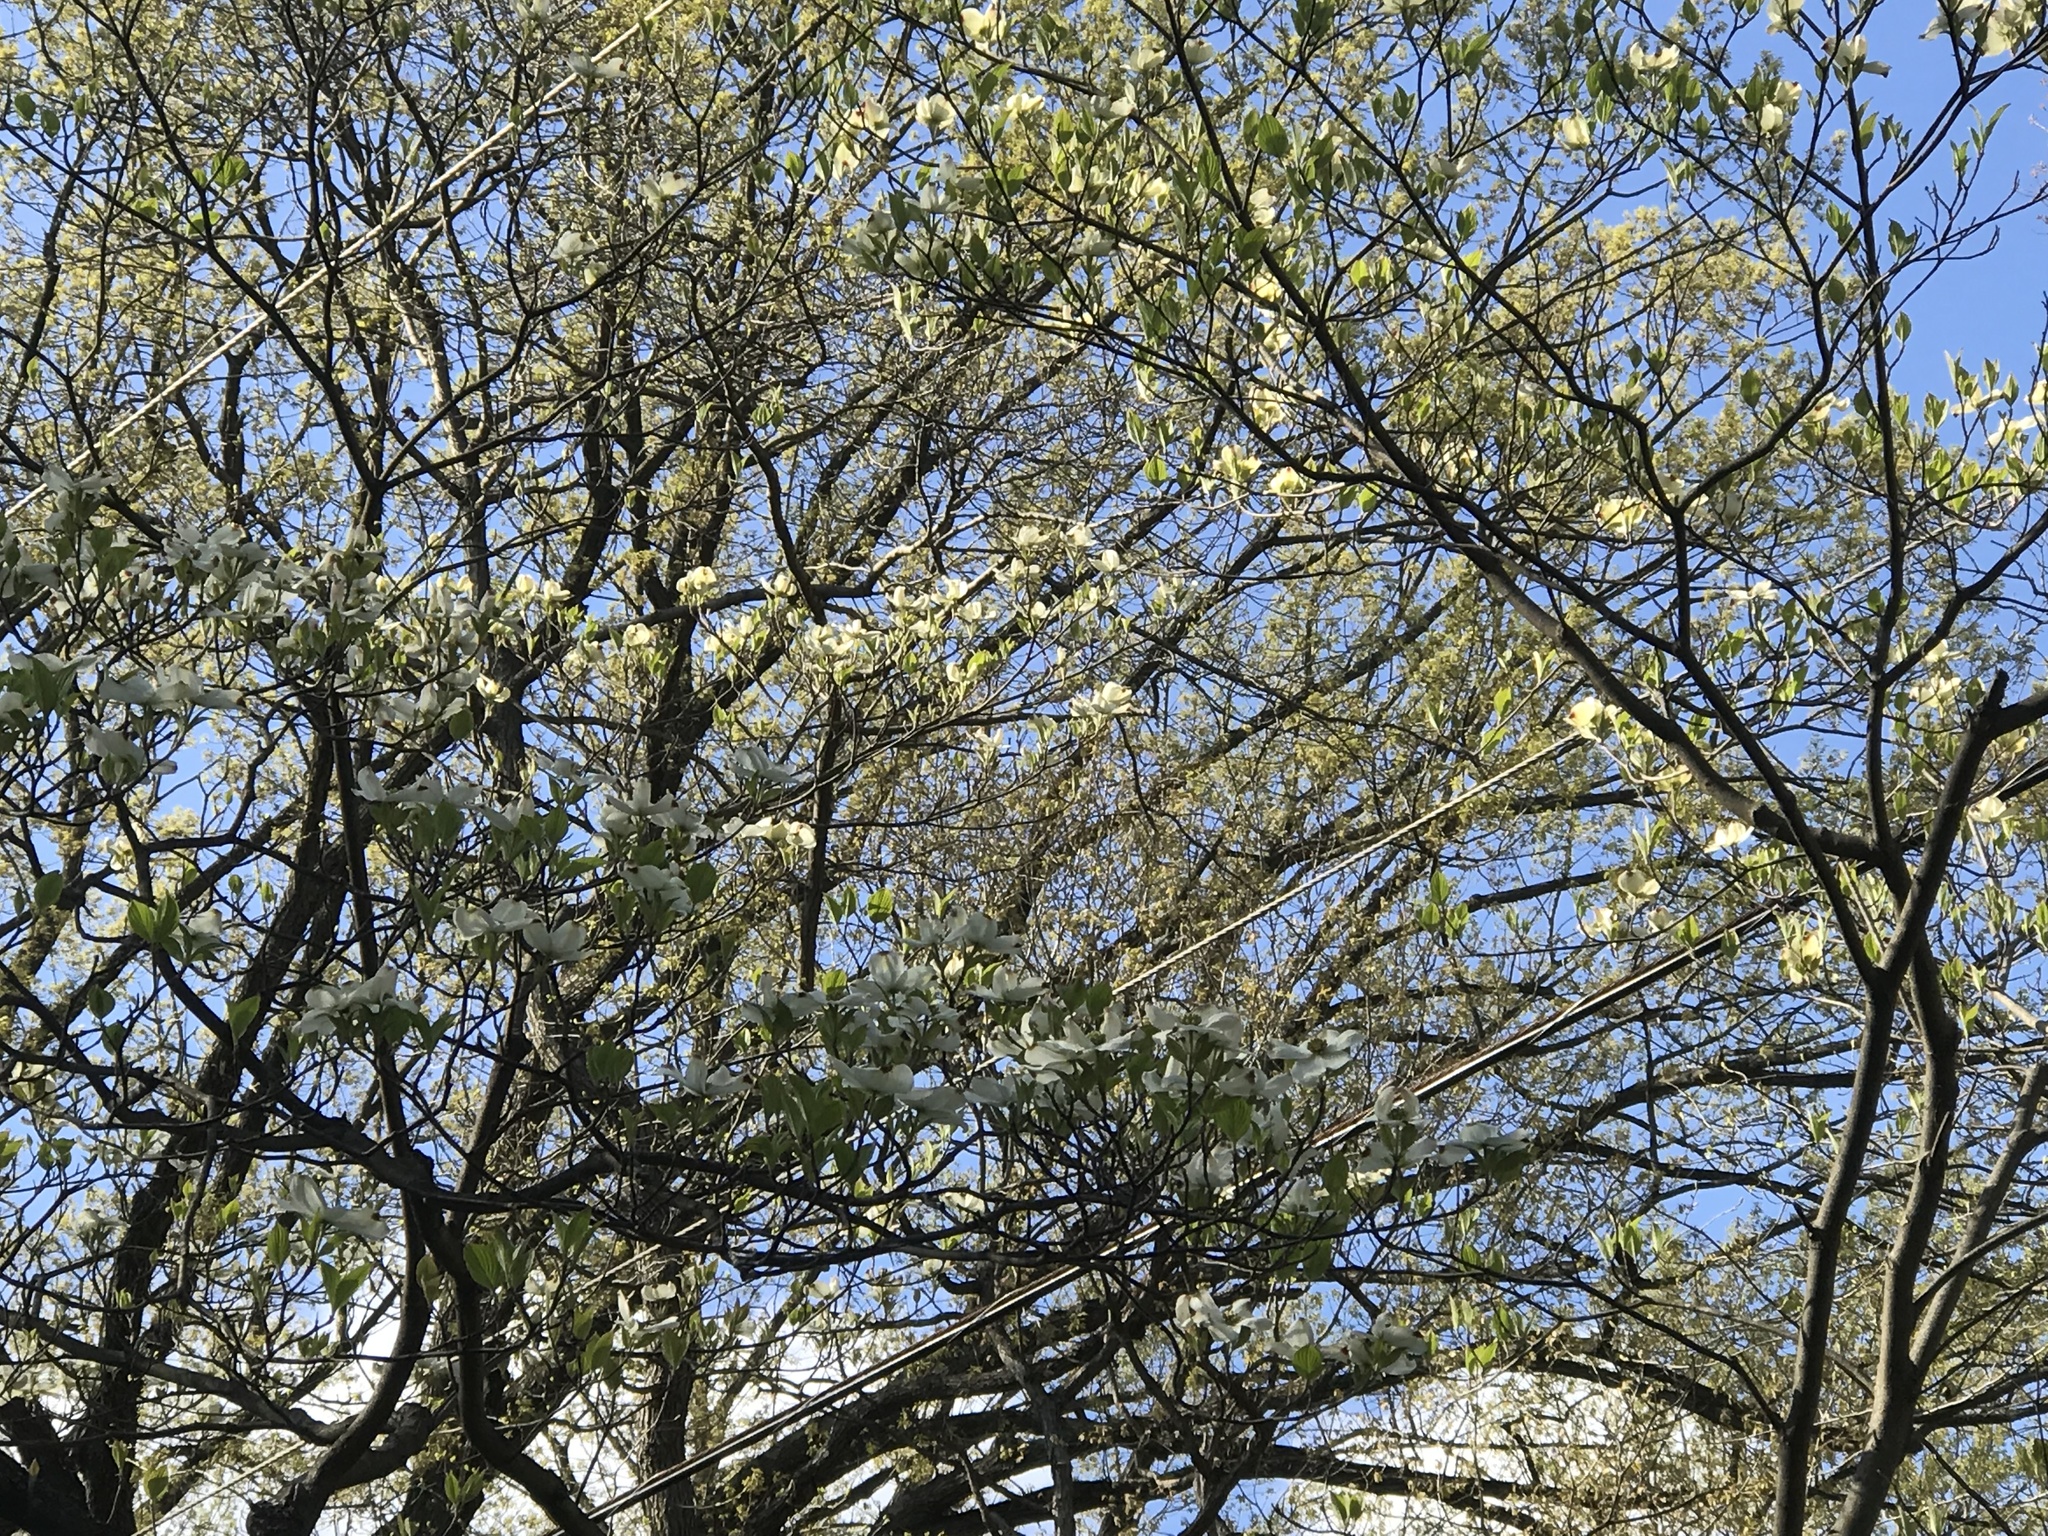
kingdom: Plantae
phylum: Tracheophyta
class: Magnoliopsida
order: Cornales
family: Cornaceae
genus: Cornus
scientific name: Cornus florida
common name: Flowering dogwood
